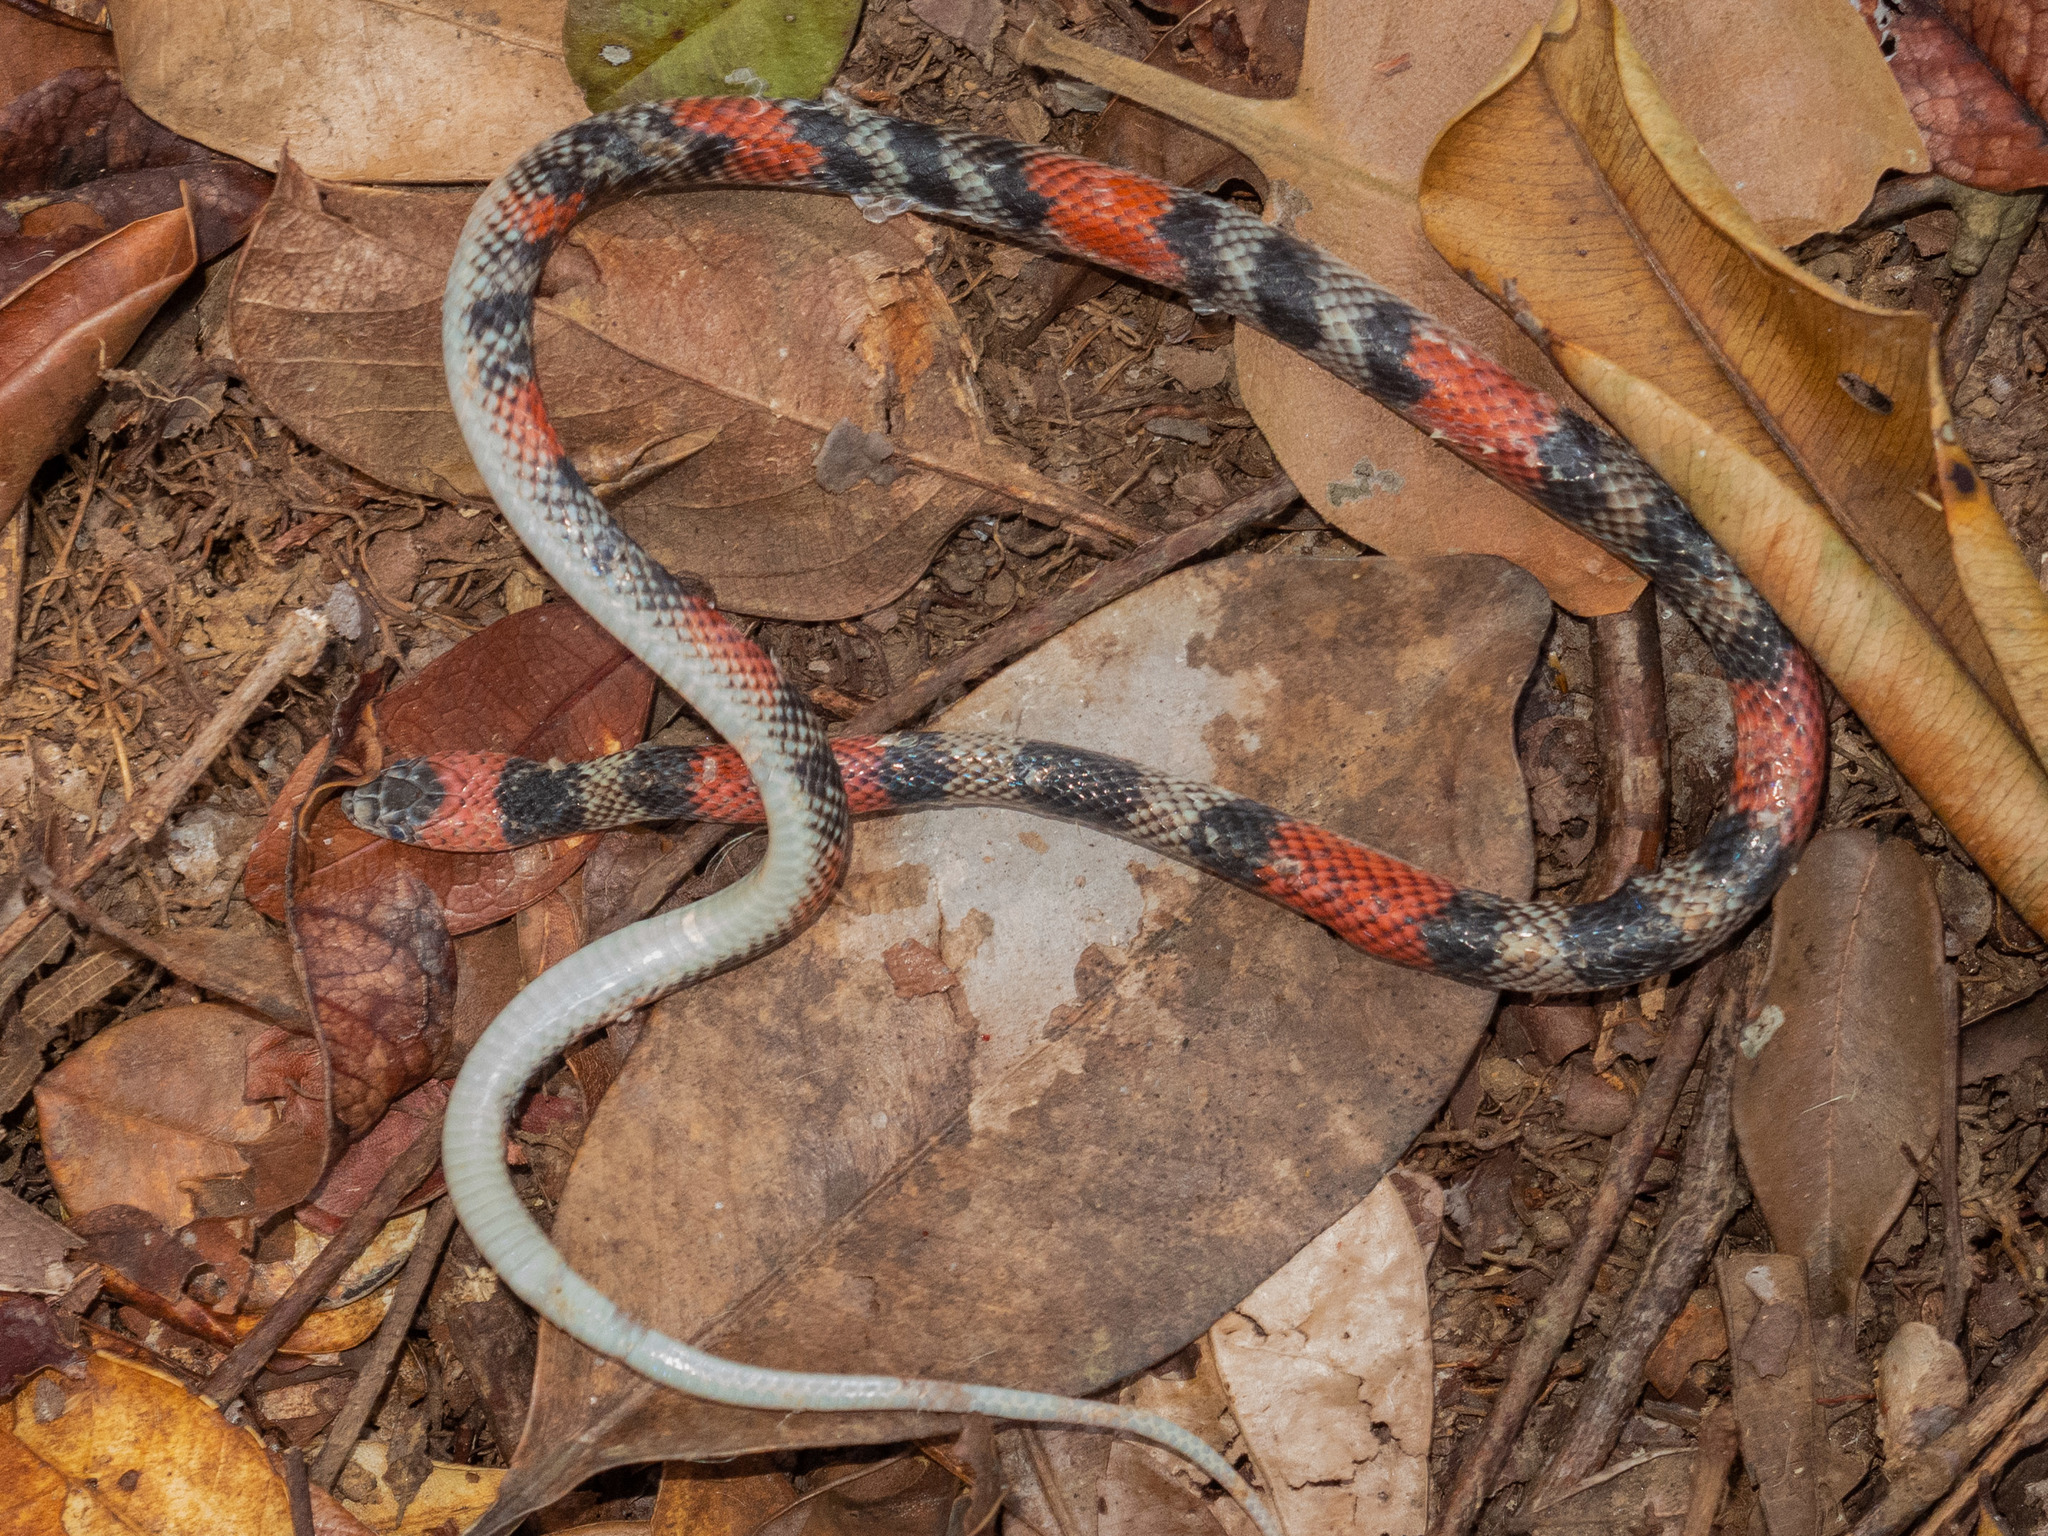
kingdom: Animalia
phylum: Chordata
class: Squamata
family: Colubridae
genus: Oxyrhopus
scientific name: Oxyrhopus trigeminus
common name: Brazilian false coral snake
